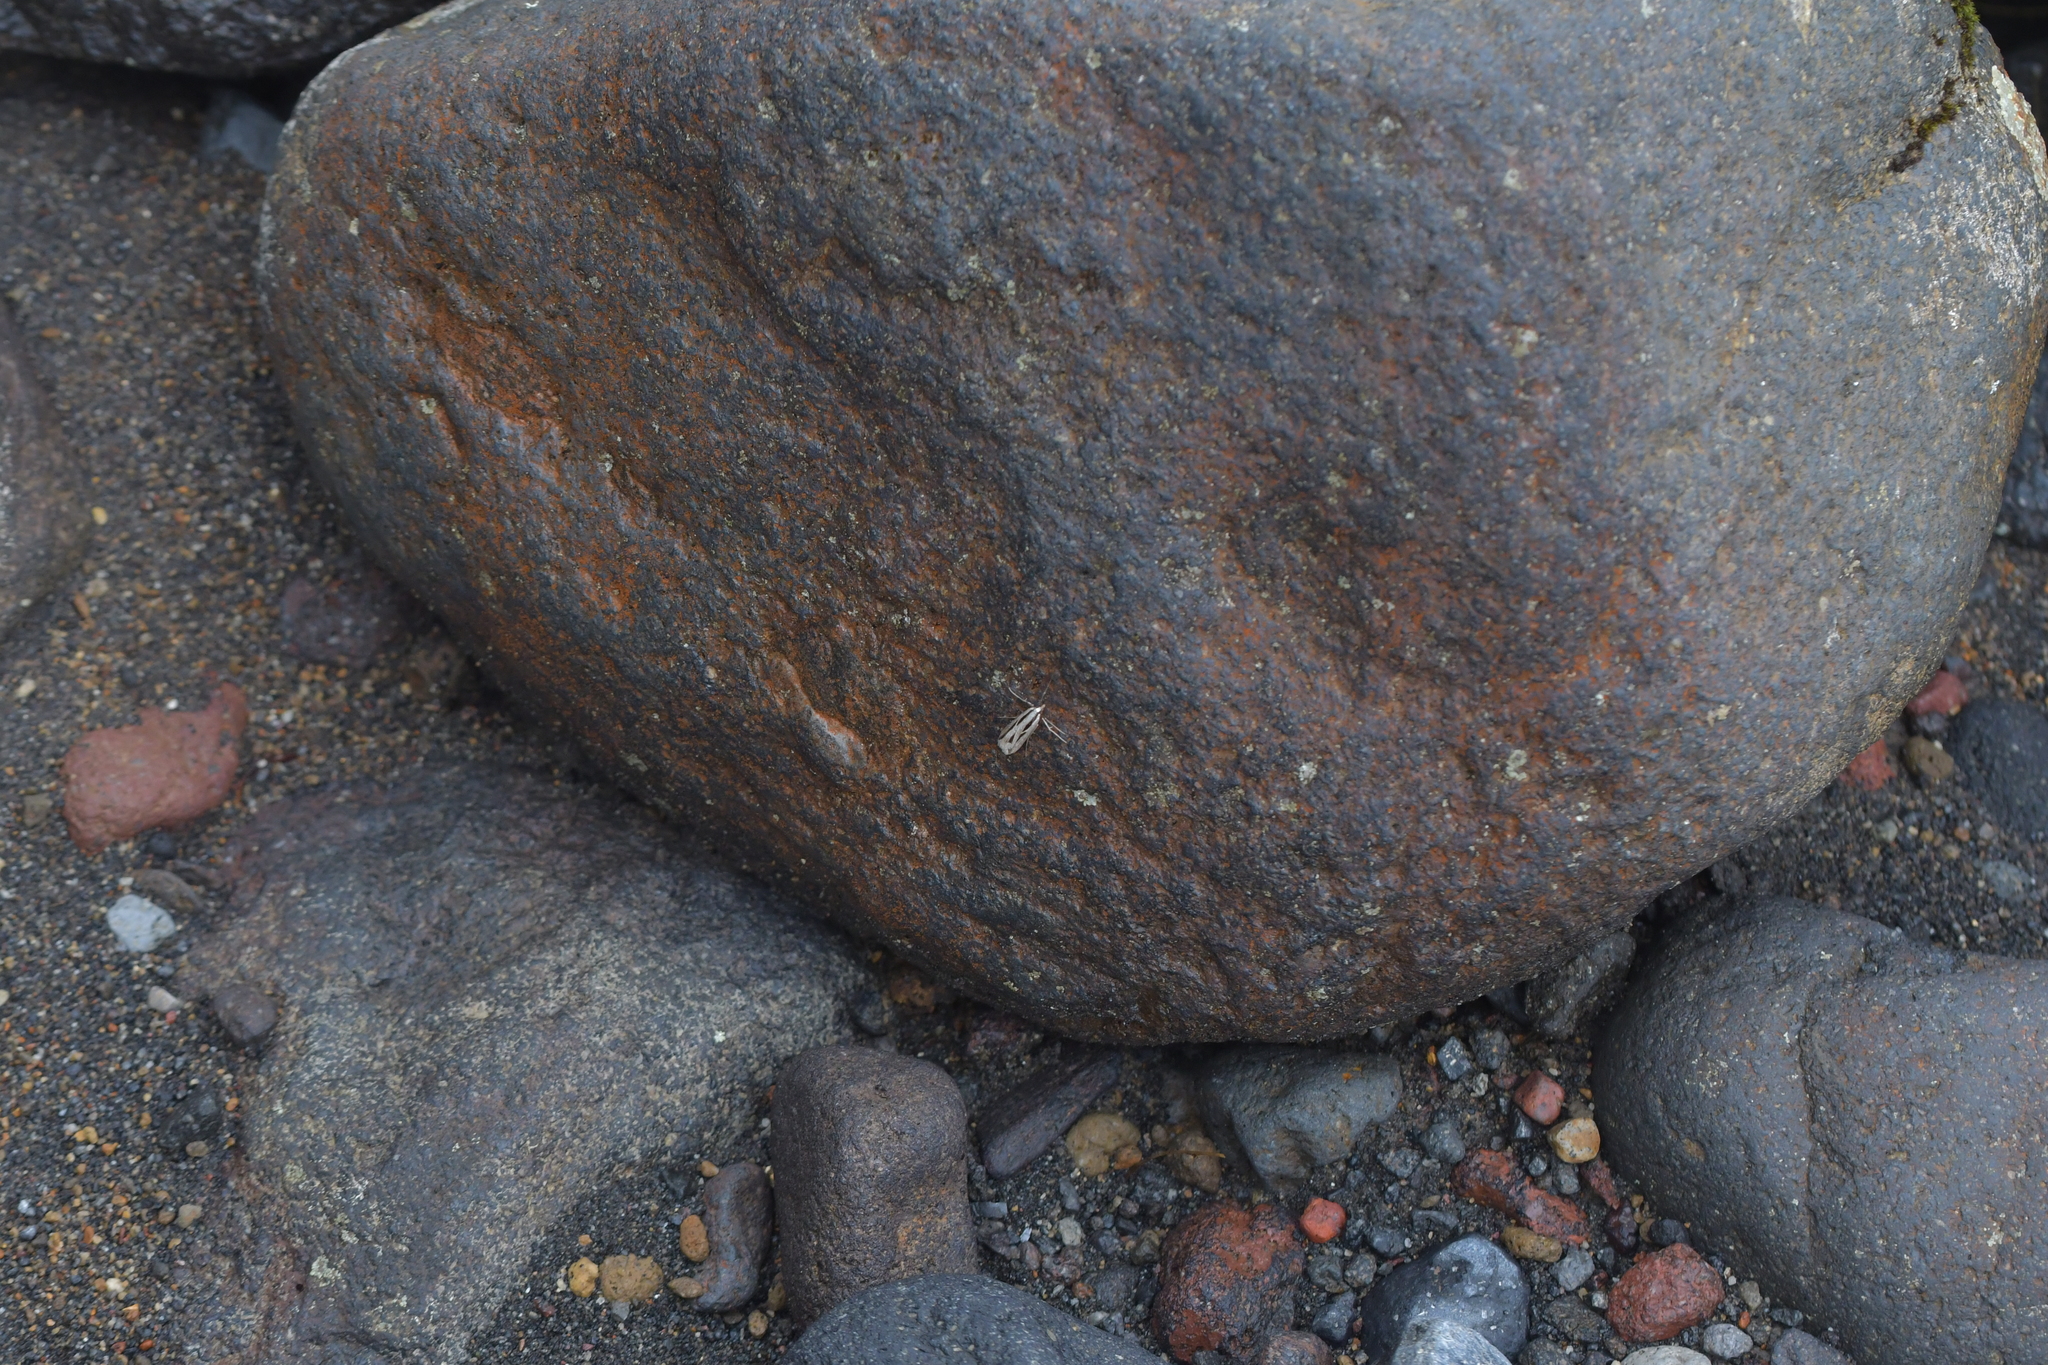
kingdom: Animalia
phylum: Arthropoda
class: Insecta
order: Lepidoptera
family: Crambidae
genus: Eudonia
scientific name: Eudonia trivirgata
